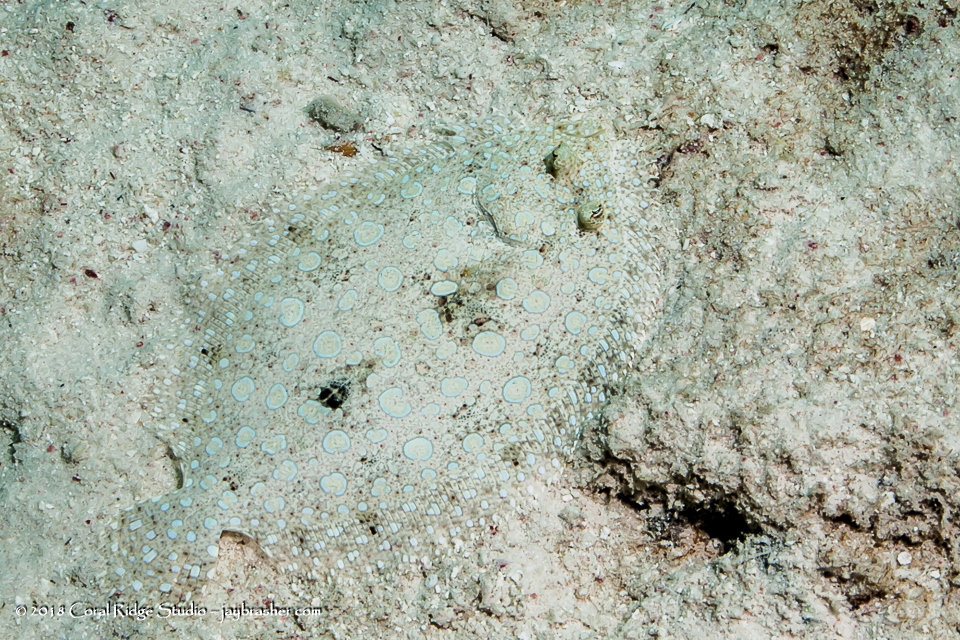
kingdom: Animalia
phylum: Chordata
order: Pleuronectiformes
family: Bothidae
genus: Bothus
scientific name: Bothus lunatus
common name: Peacock flounder
